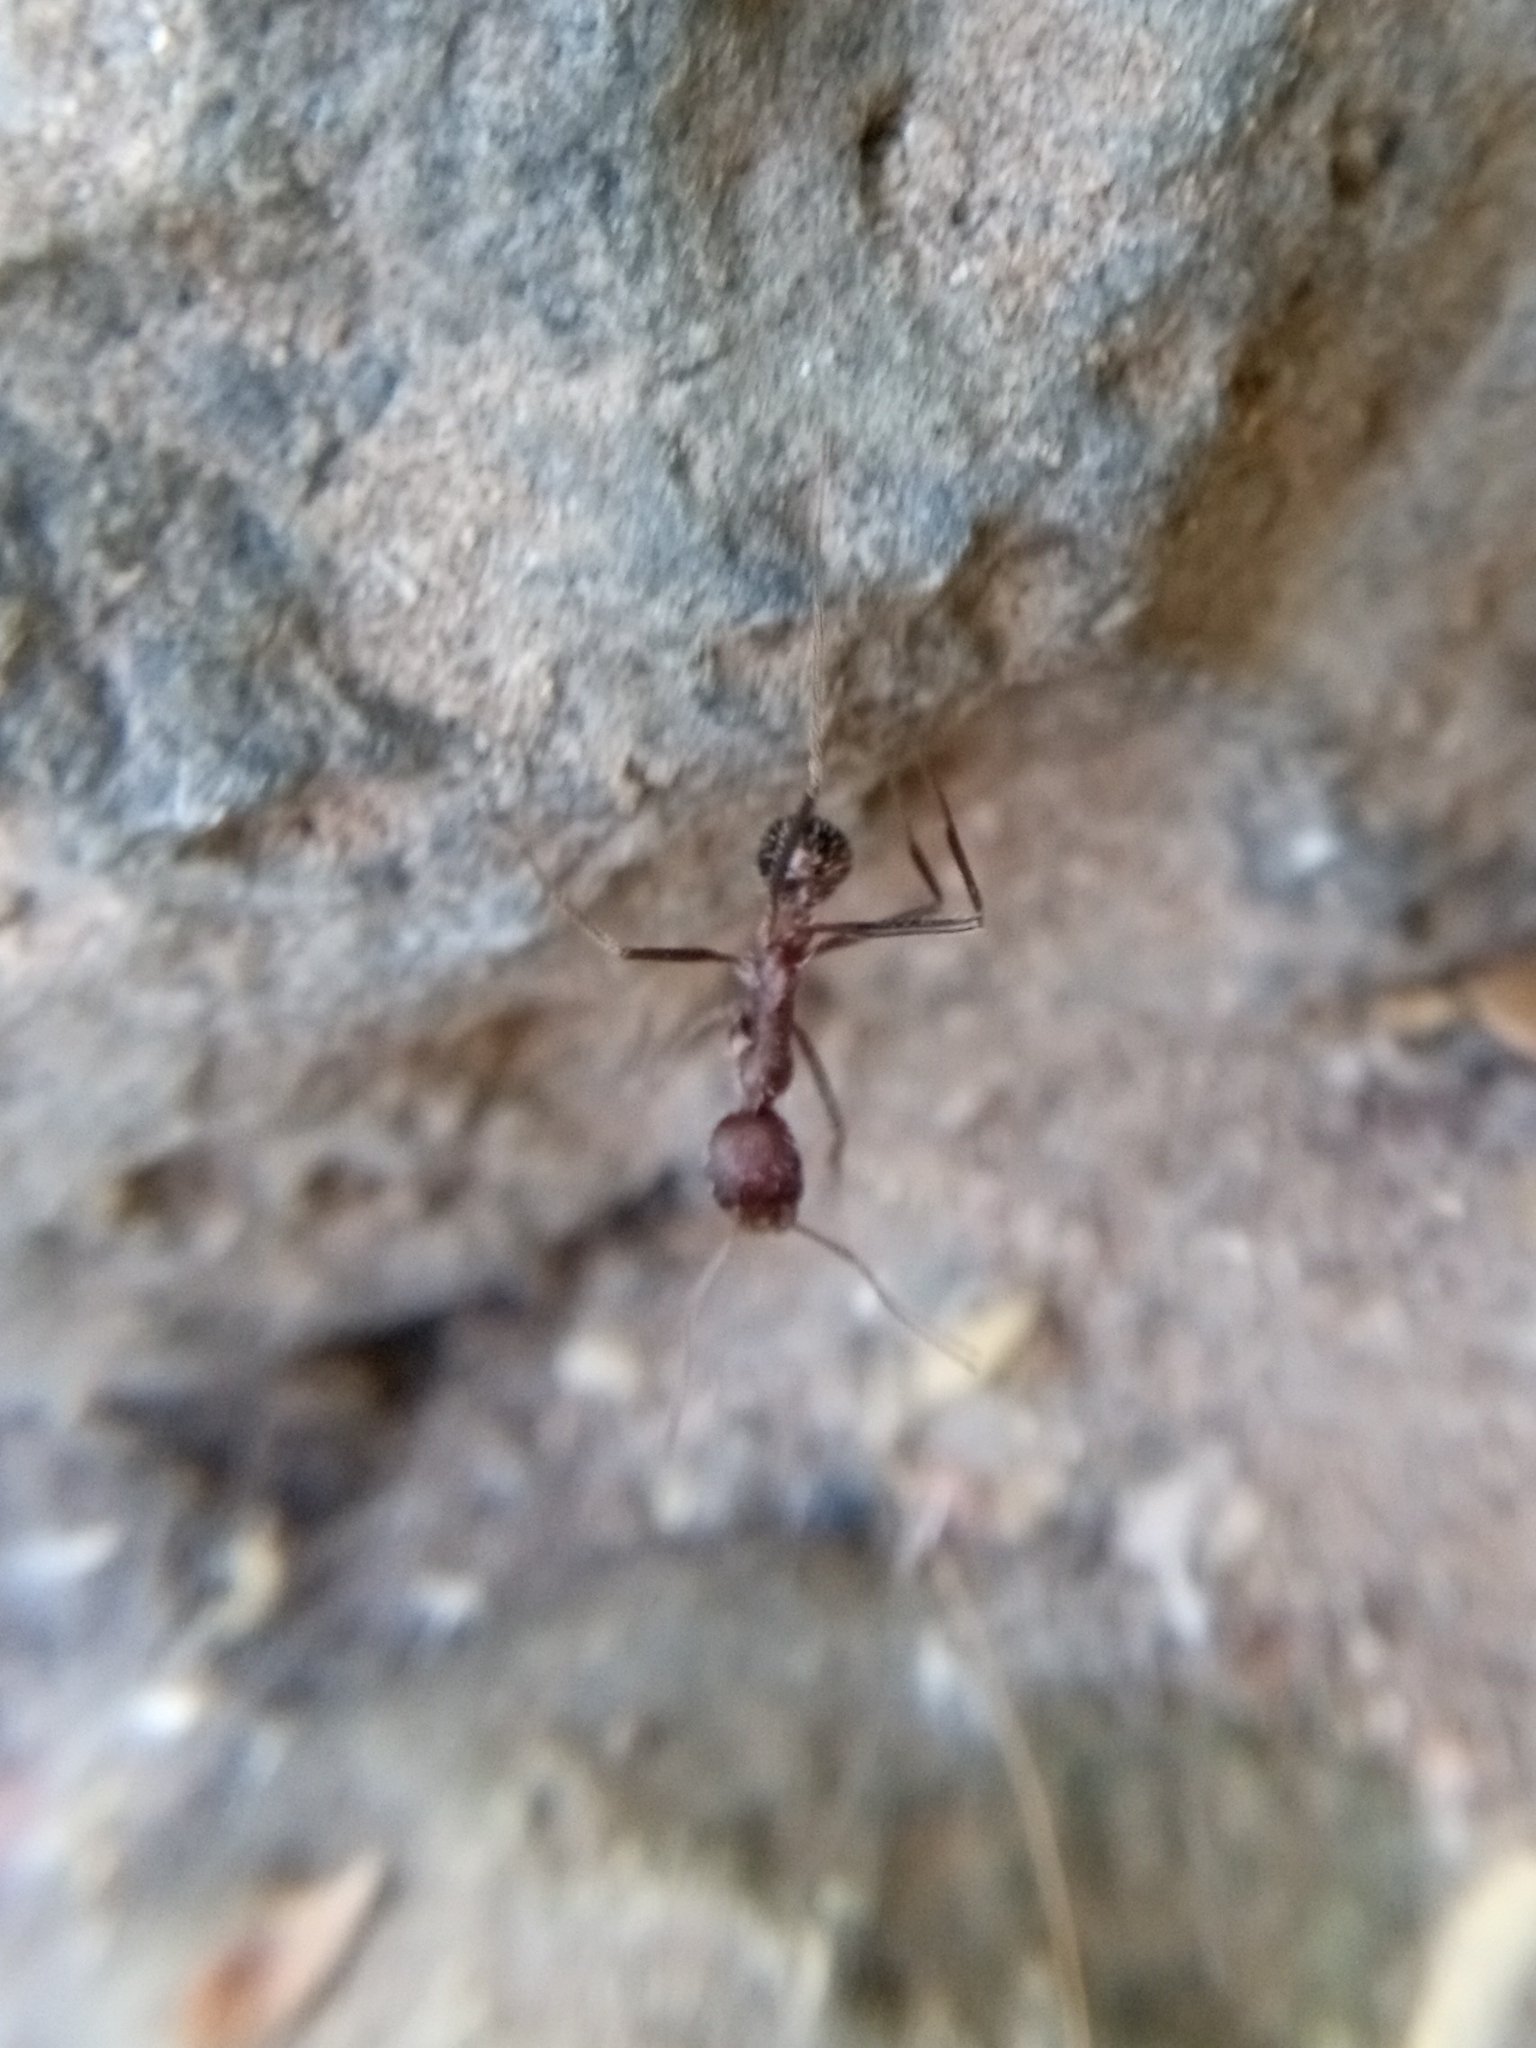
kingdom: Animalia
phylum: Arthropoda
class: Insecta
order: Hymenoptera
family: Formicidae
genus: Novomessor
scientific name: Novomessor albisetosa
